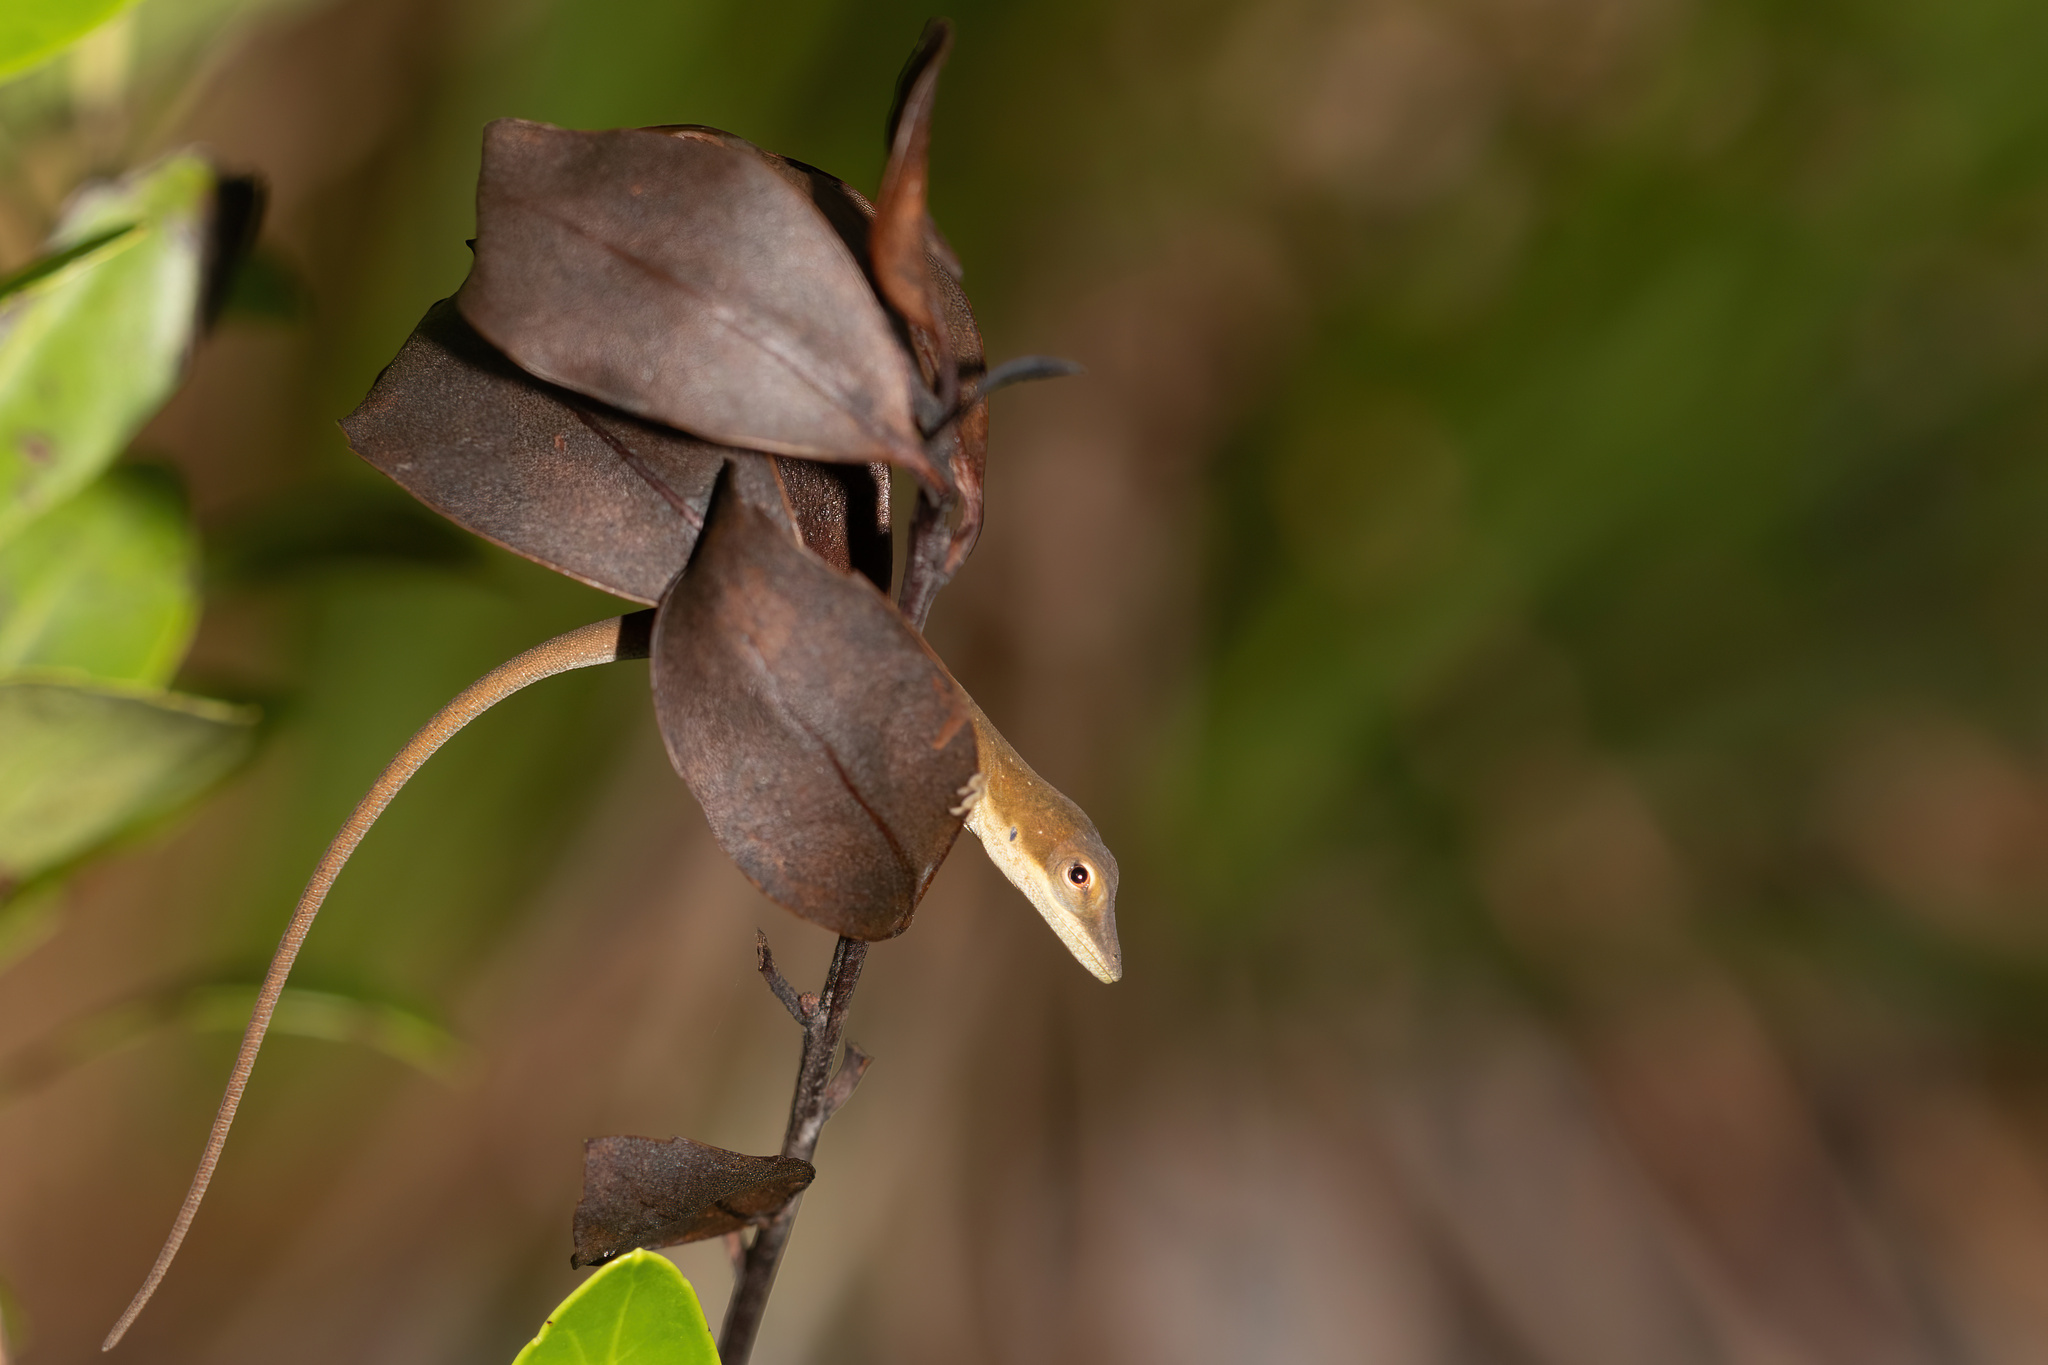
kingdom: Animalia
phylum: Chordata
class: Squamata
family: Dactyloidae
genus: Anolis
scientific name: Anolis carolinensis
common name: Green anole
